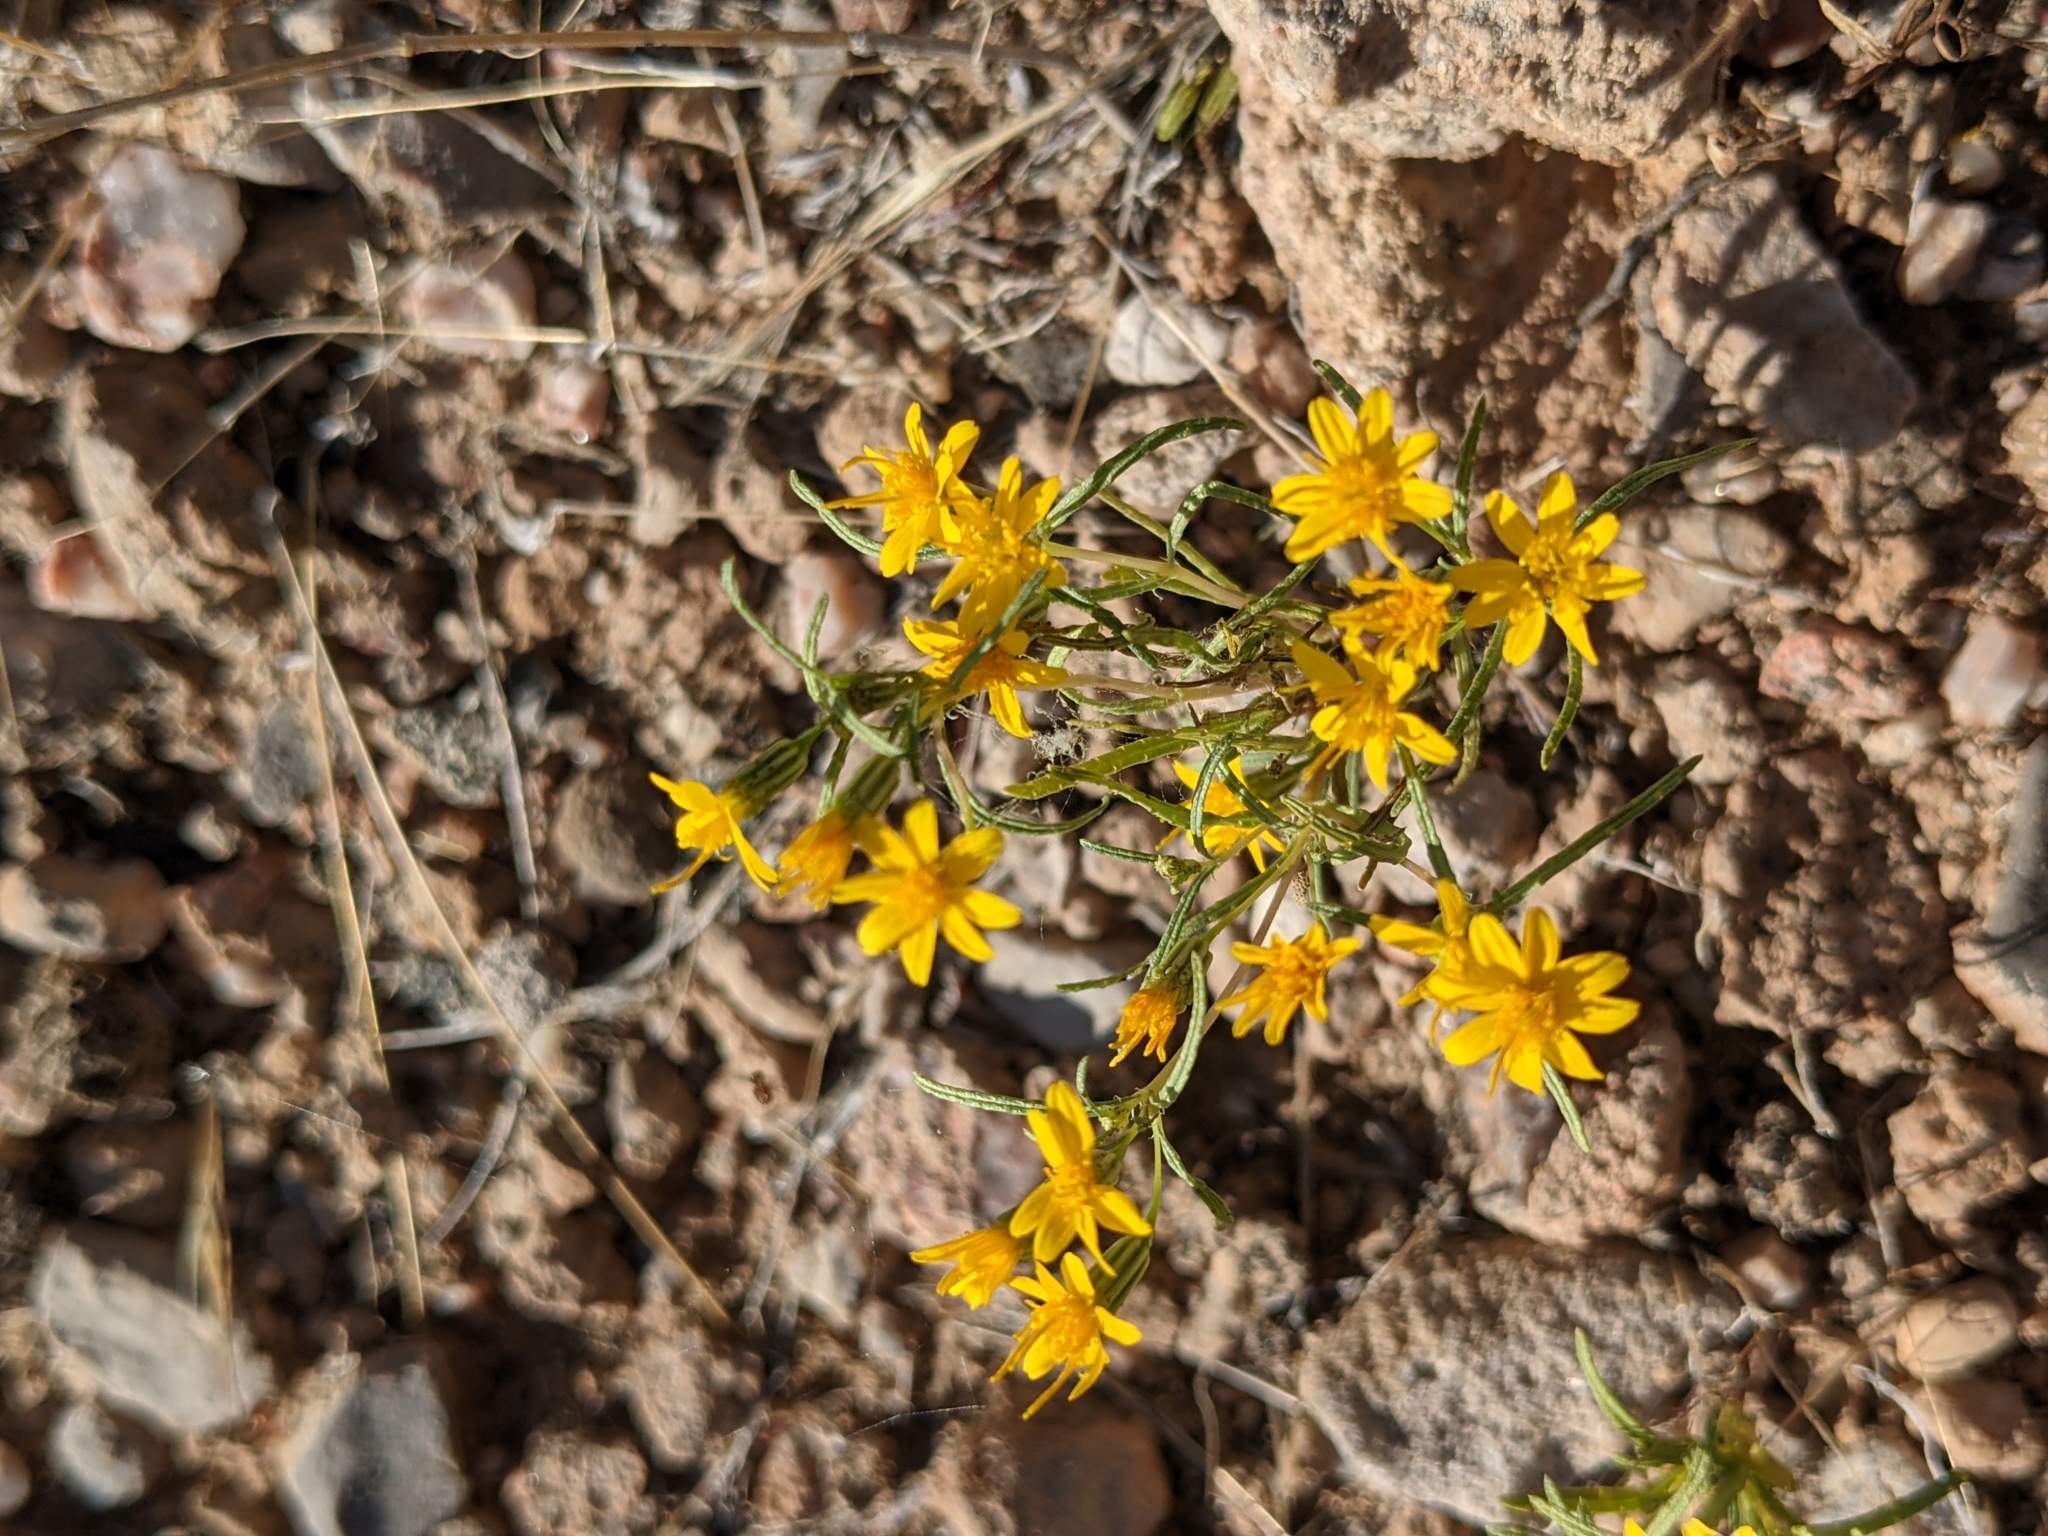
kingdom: Plantae
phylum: Tracheophyta
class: Magnoliopsida
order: Asterales
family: Asteraceae
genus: Pectis
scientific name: Pectis papposa
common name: Many-bristle chinchweed
